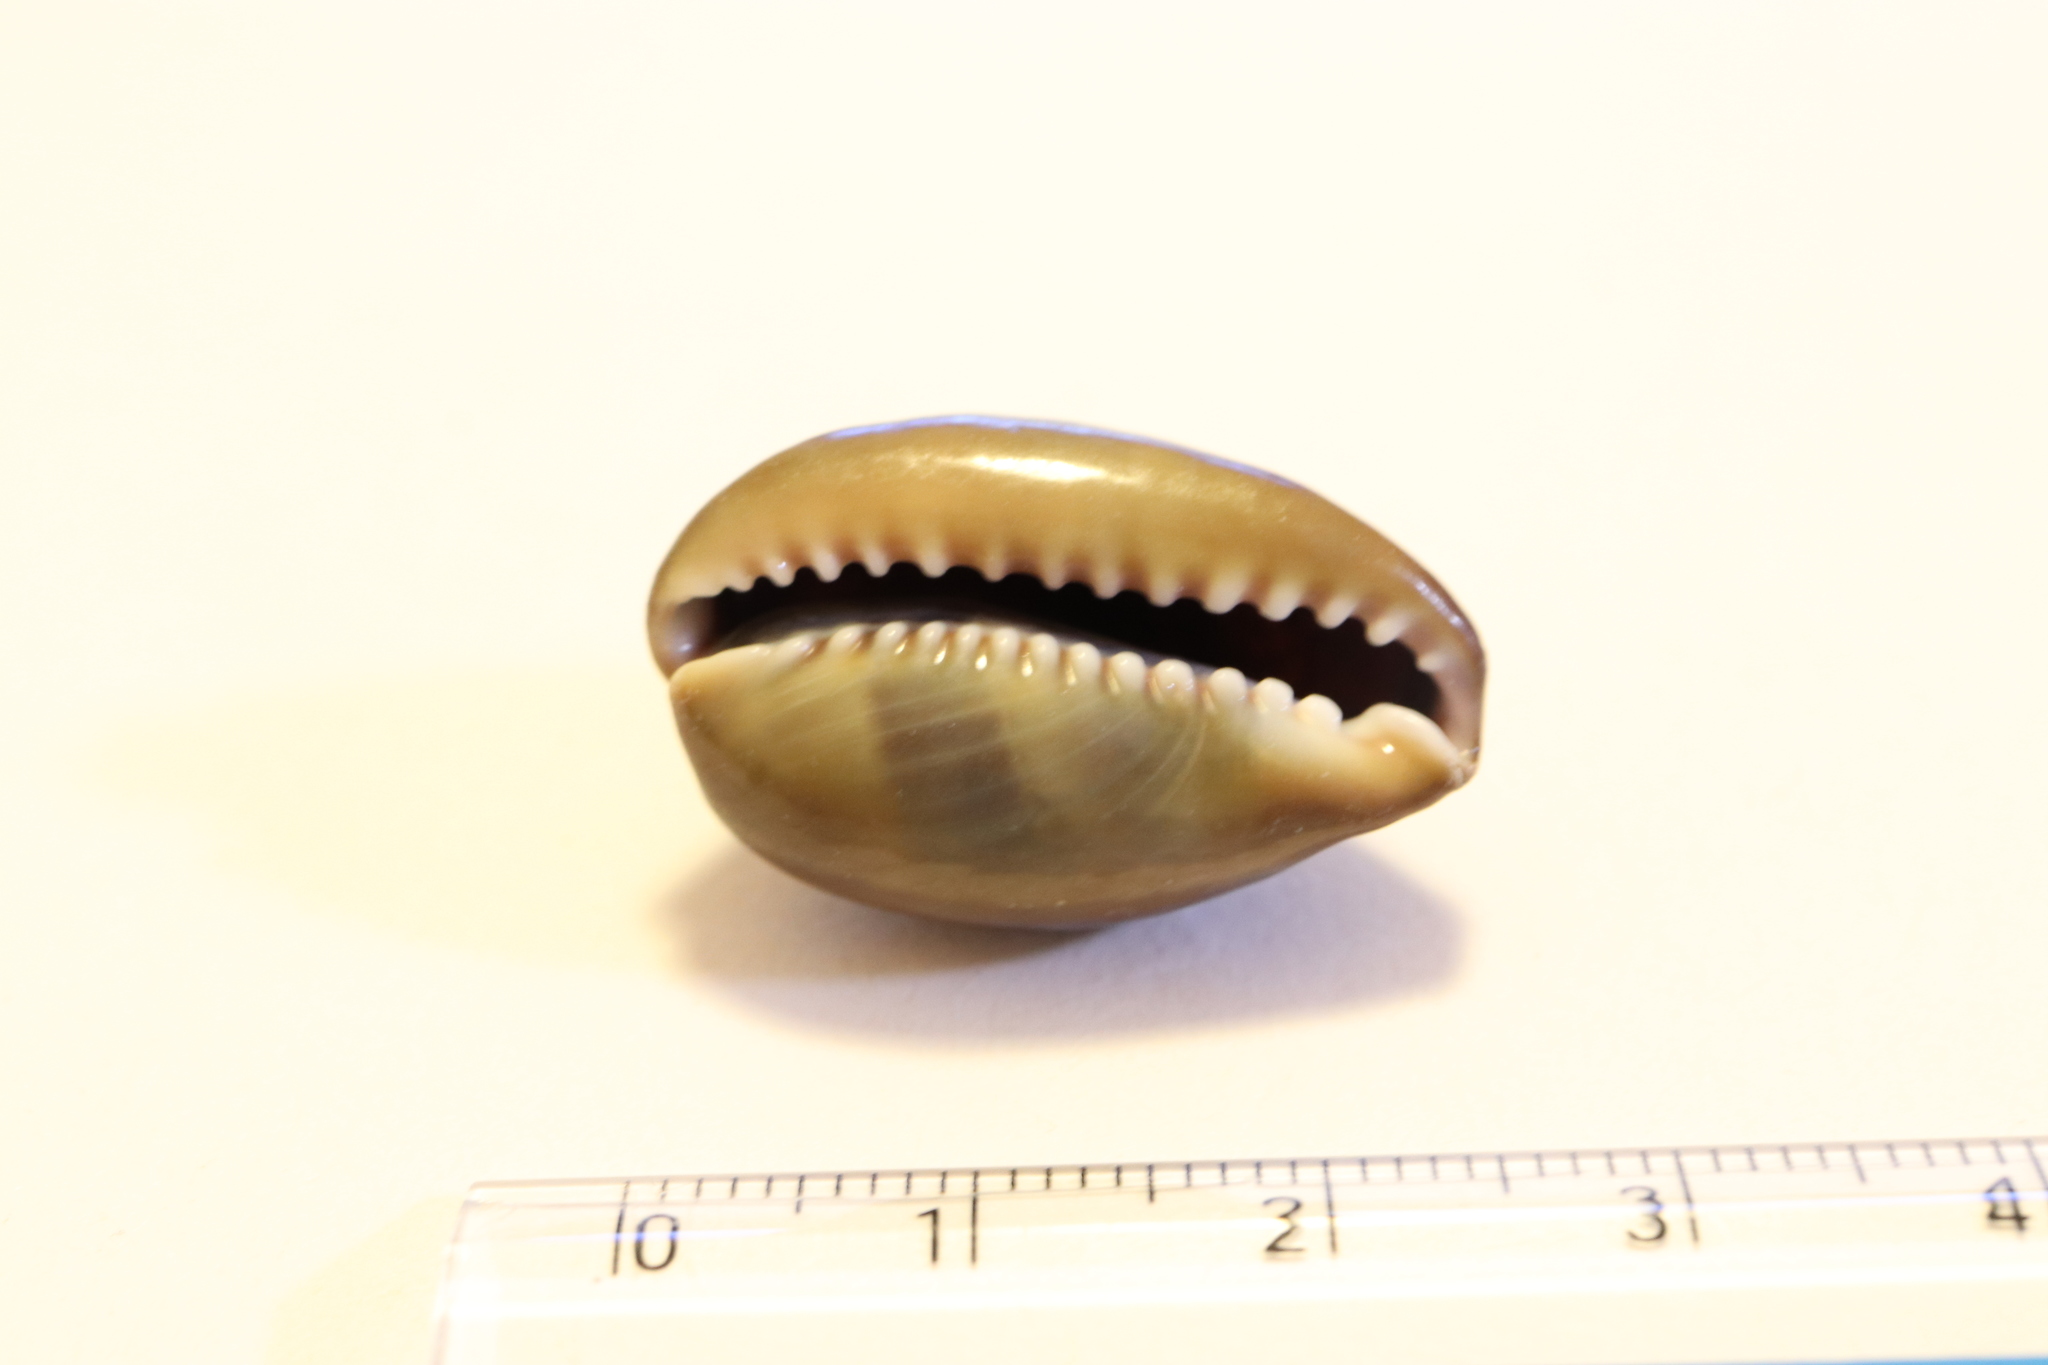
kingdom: Animalia
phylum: Mollusca
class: Gastropoda
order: Littorinimorpha
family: Cypraeidae
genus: Monetaria
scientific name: Monetaria caputserpentis
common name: Serpent's head cowrie
